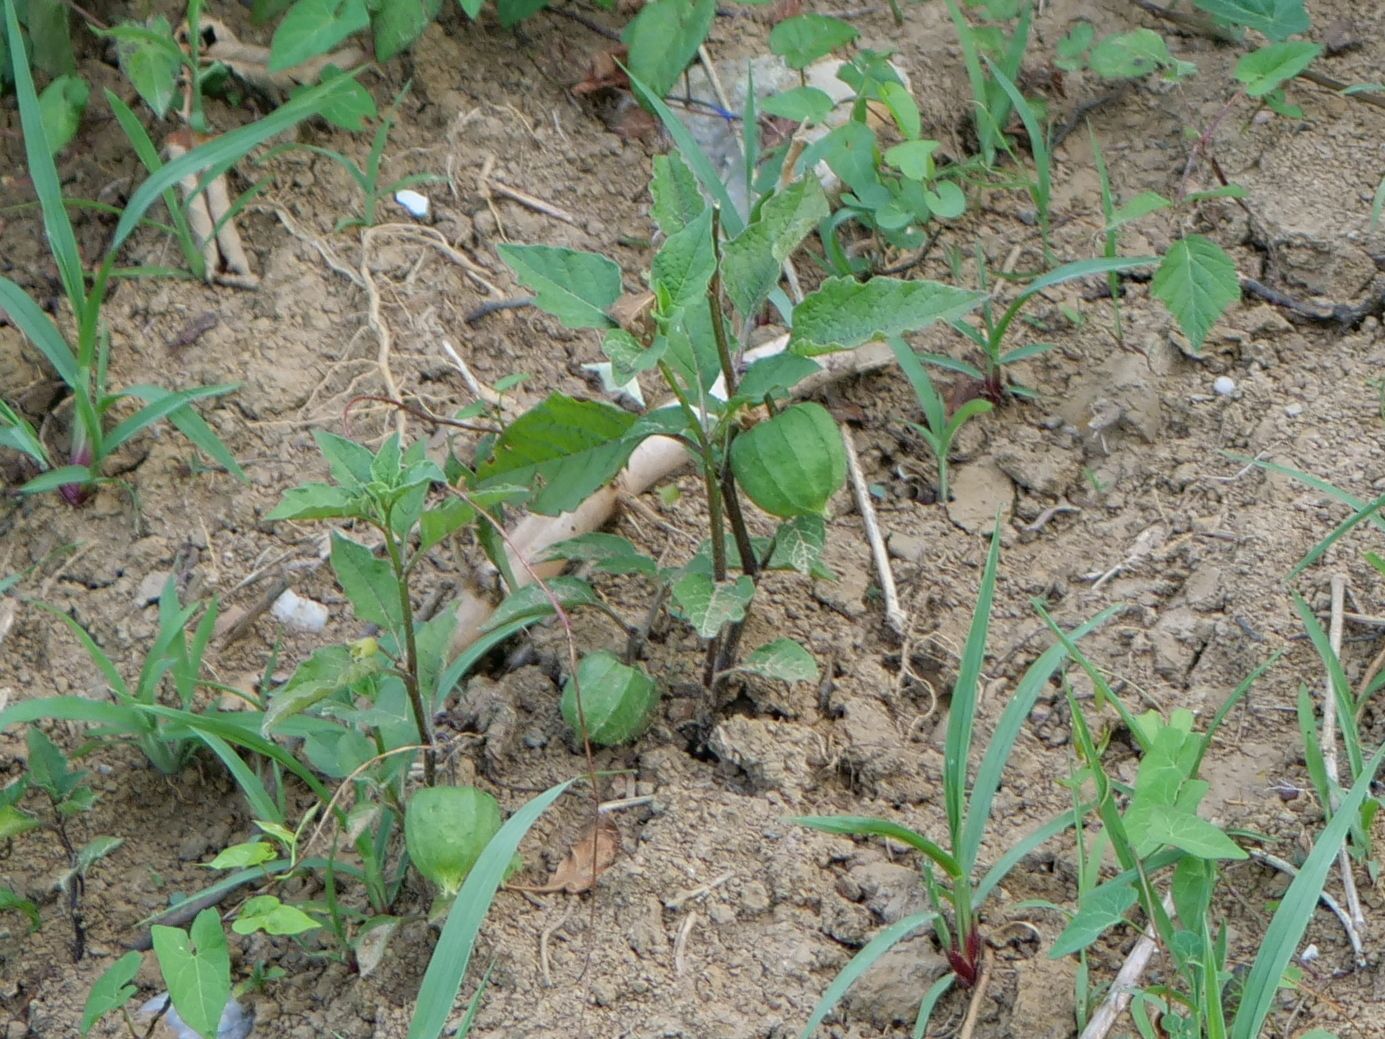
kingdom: Plantae
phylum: Tracheophyta
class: Magnoliopsida
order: Solanales
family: Solanaceae
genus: Alkekengi
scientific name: Alkekengi officinarum
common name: Japanese-lantern
